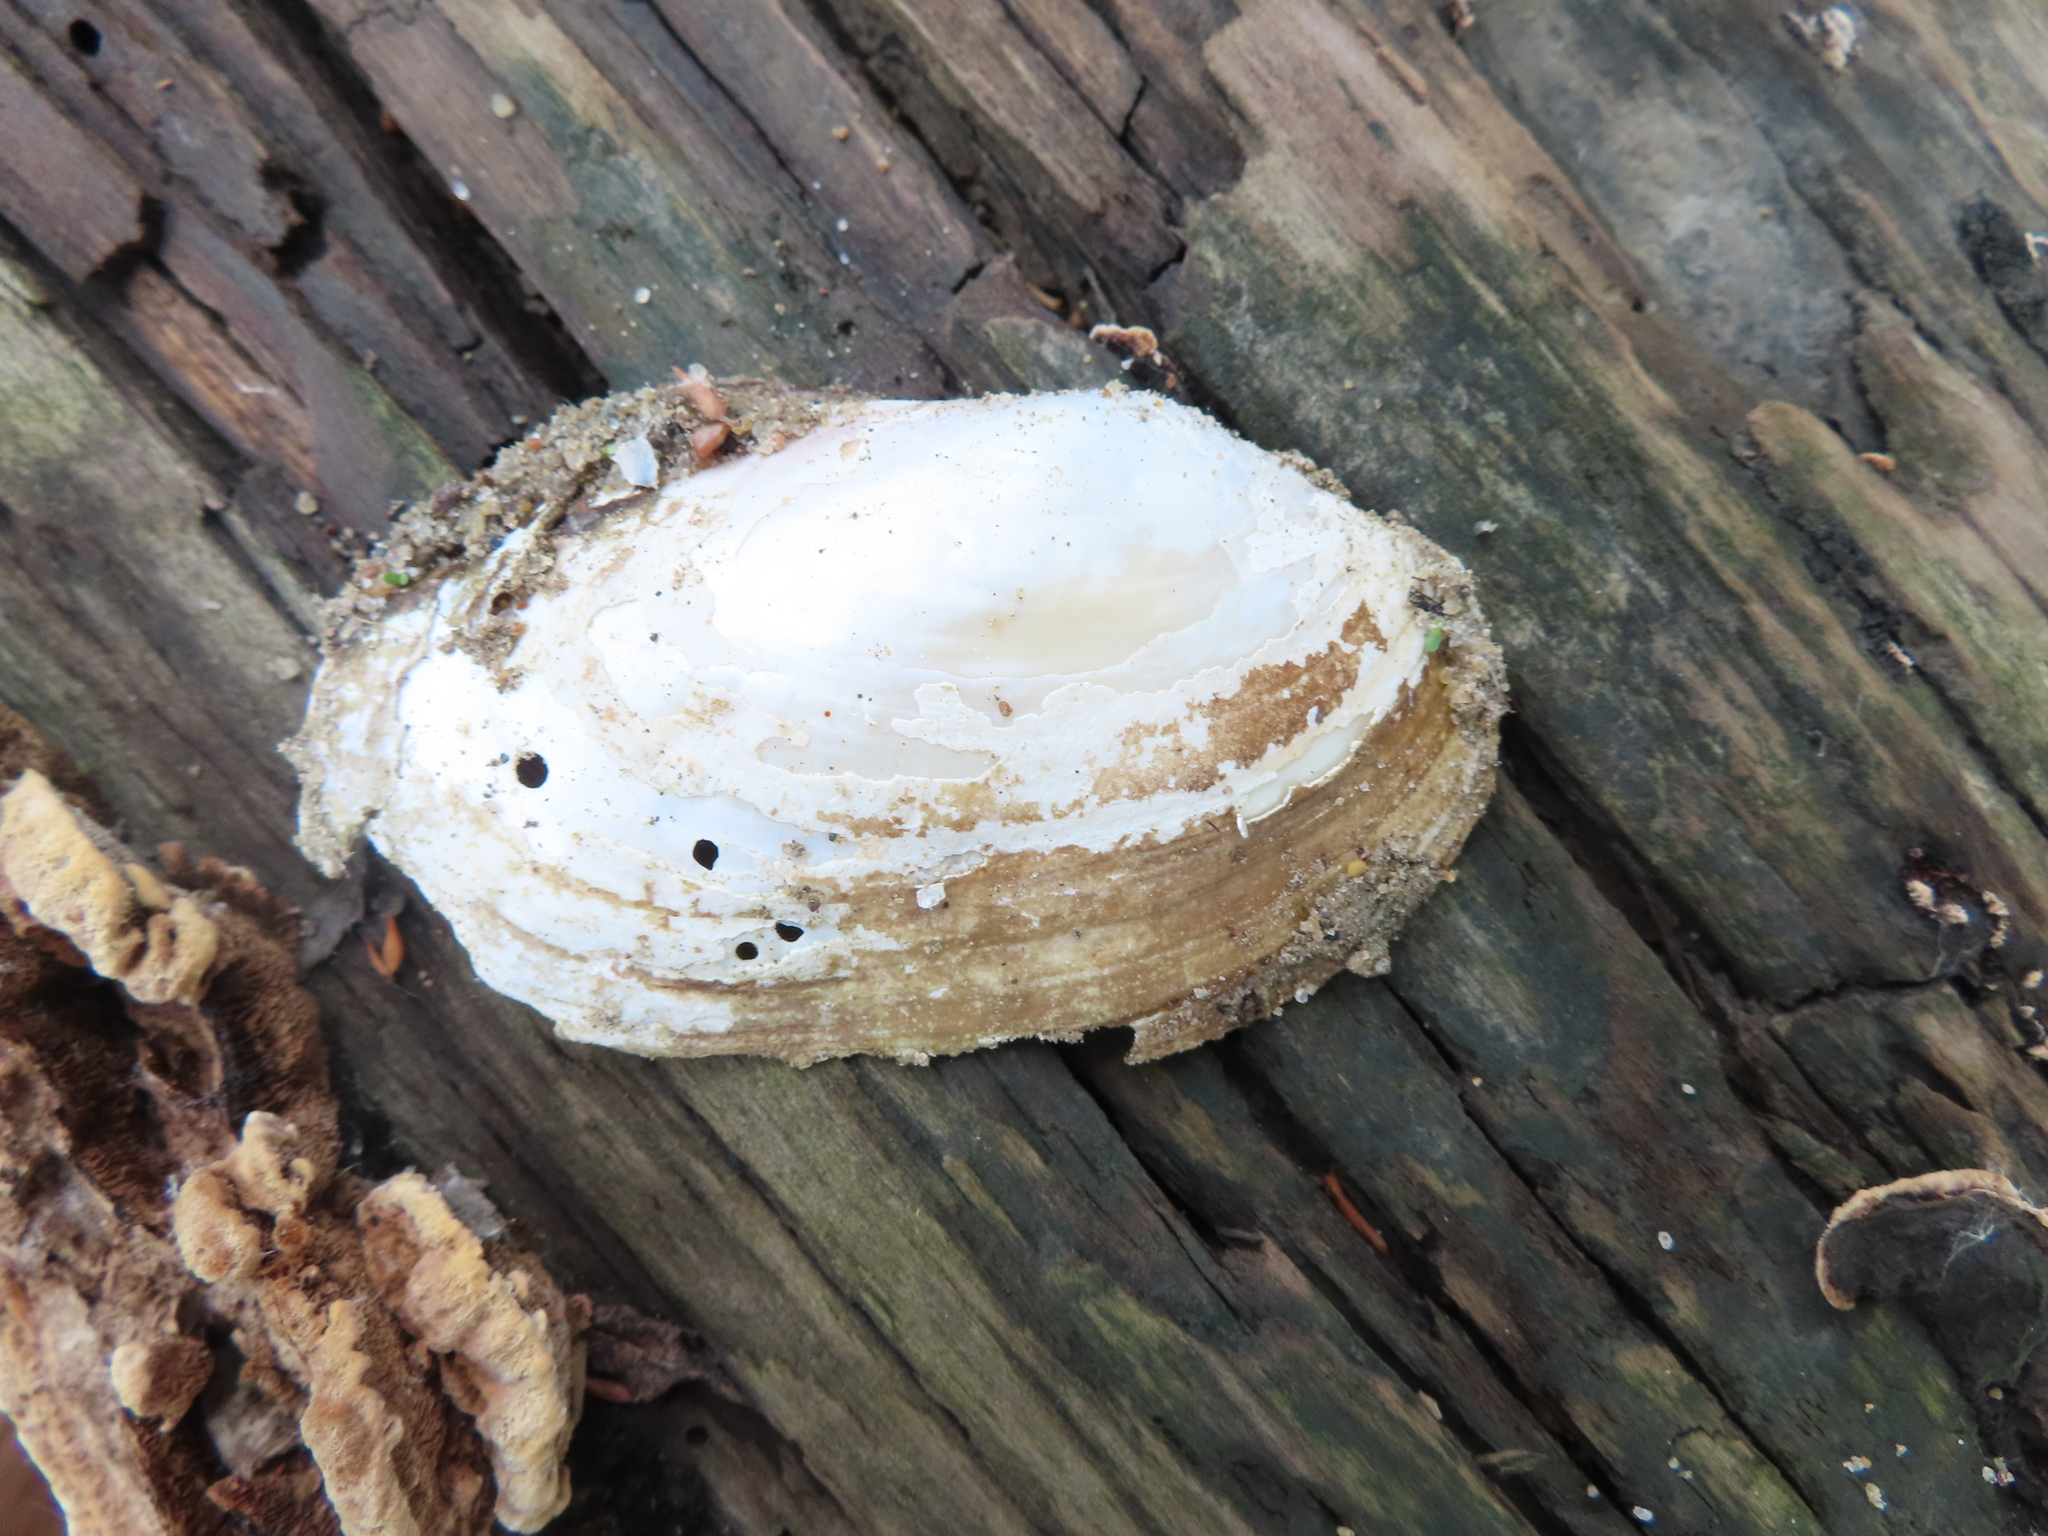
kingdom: Animalia
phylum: Mollusca
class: Bivalvia
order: Unionida
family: Unionidae
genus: Potamilus
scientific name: Potamilus fragilis
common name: Fragile papershell
